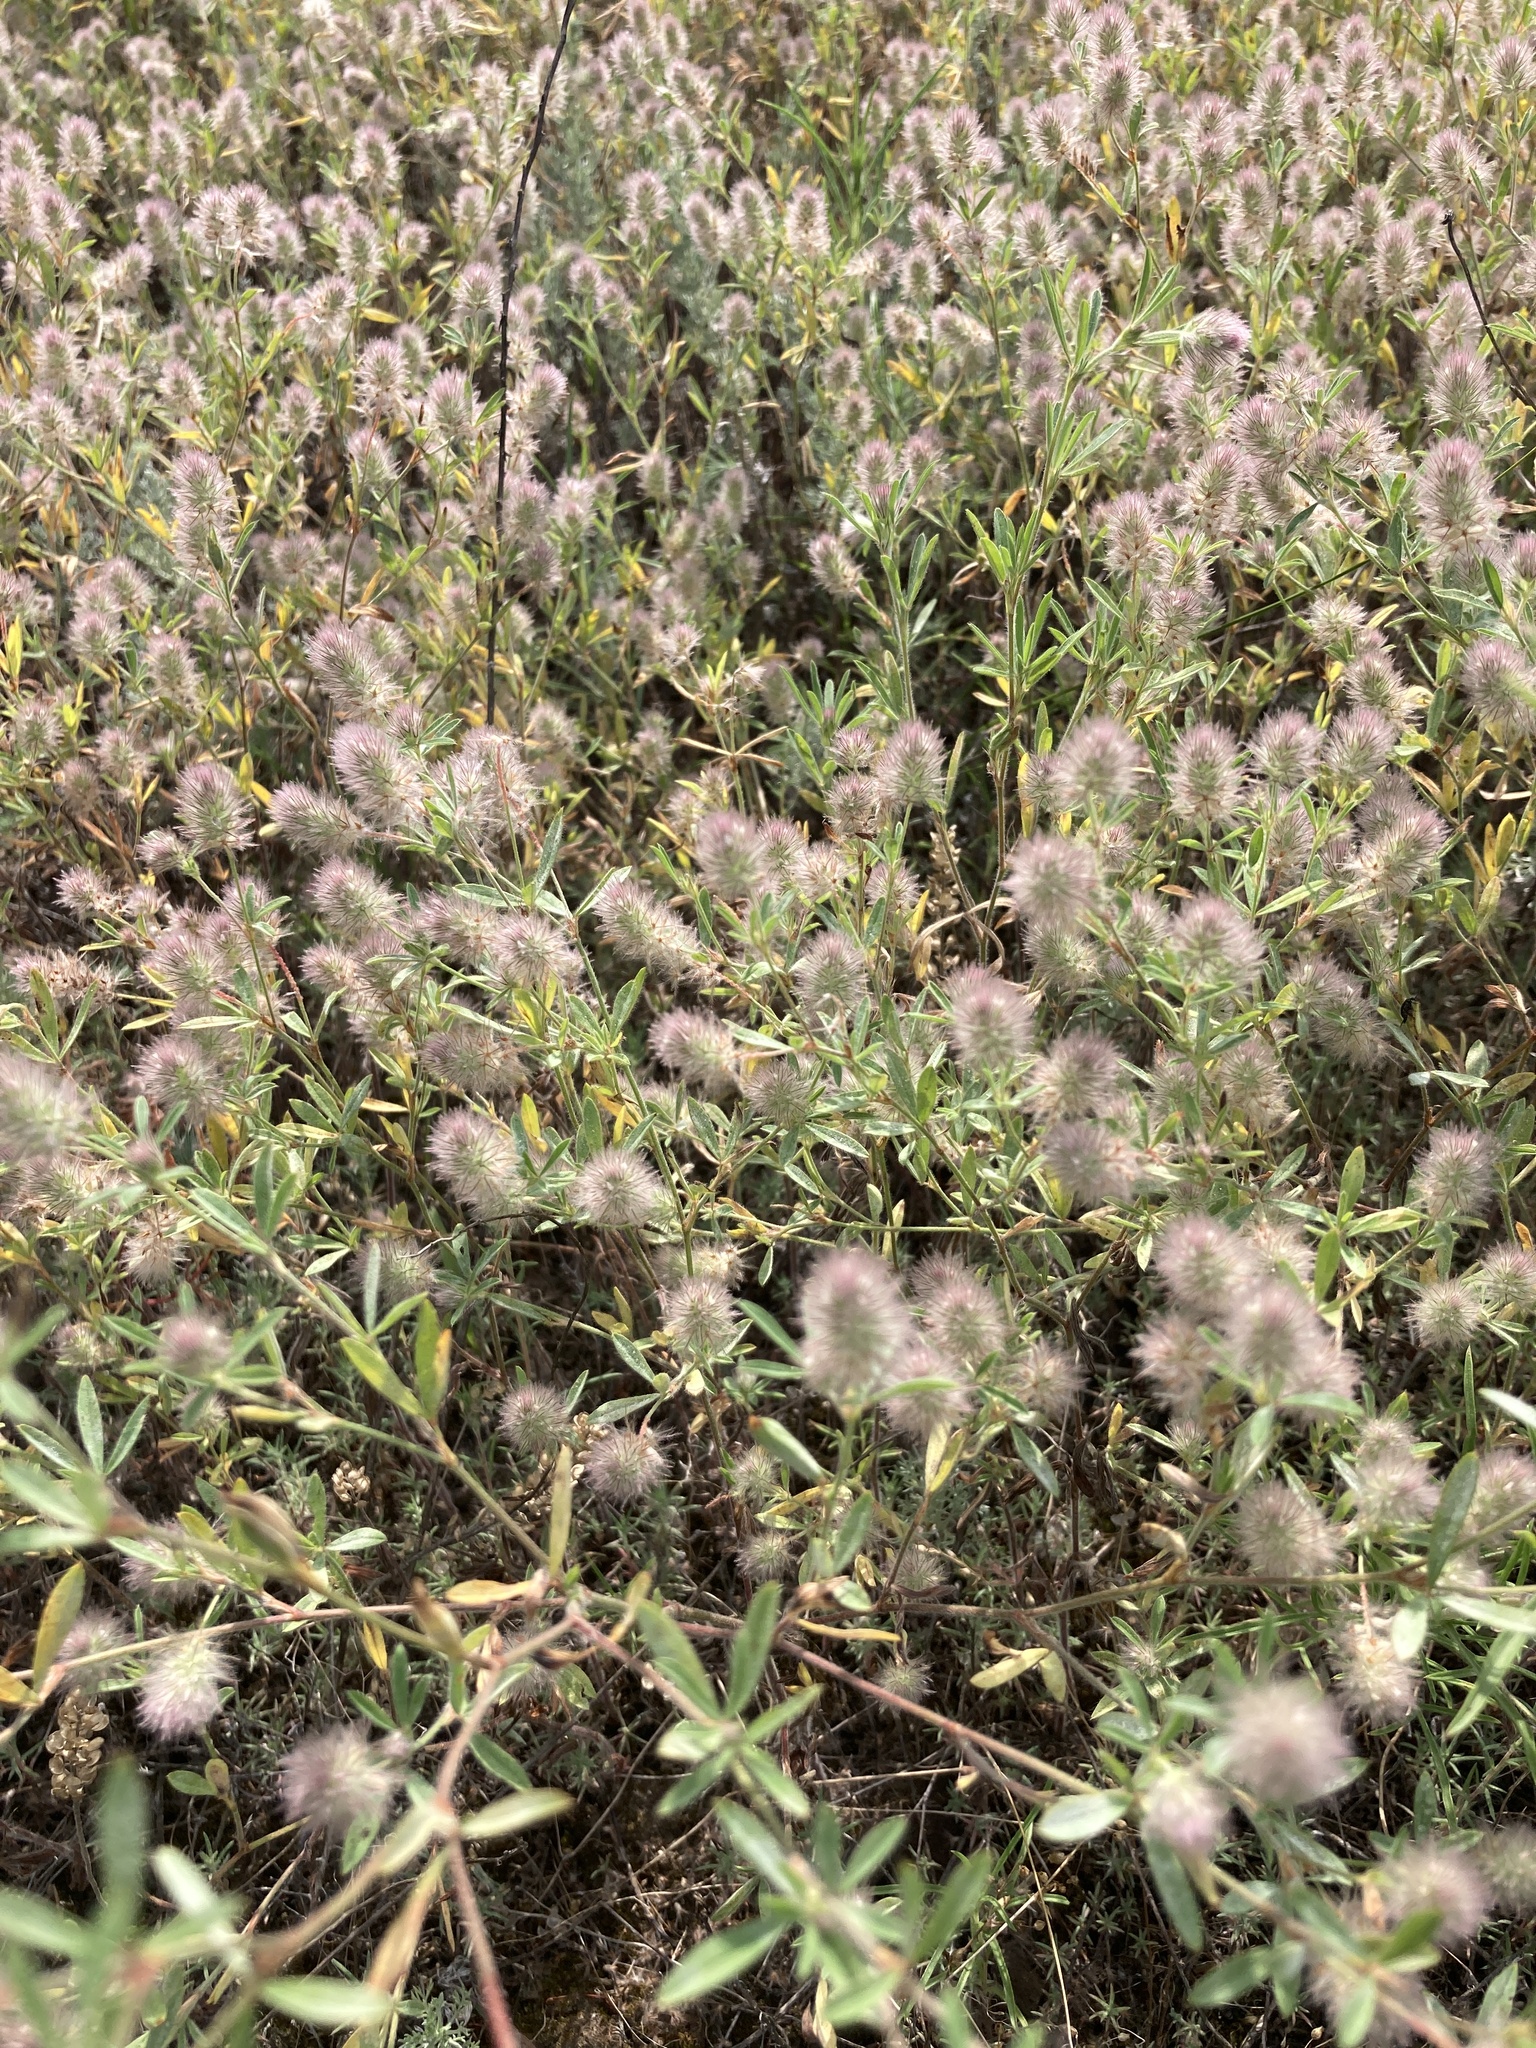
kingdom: Plantae
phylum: Tracheophyta
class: Magnoliopsida
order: Fabales
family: Fabaceae
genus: Trifolium
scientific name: Trifolium arvense
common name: Hare's-foot clover
